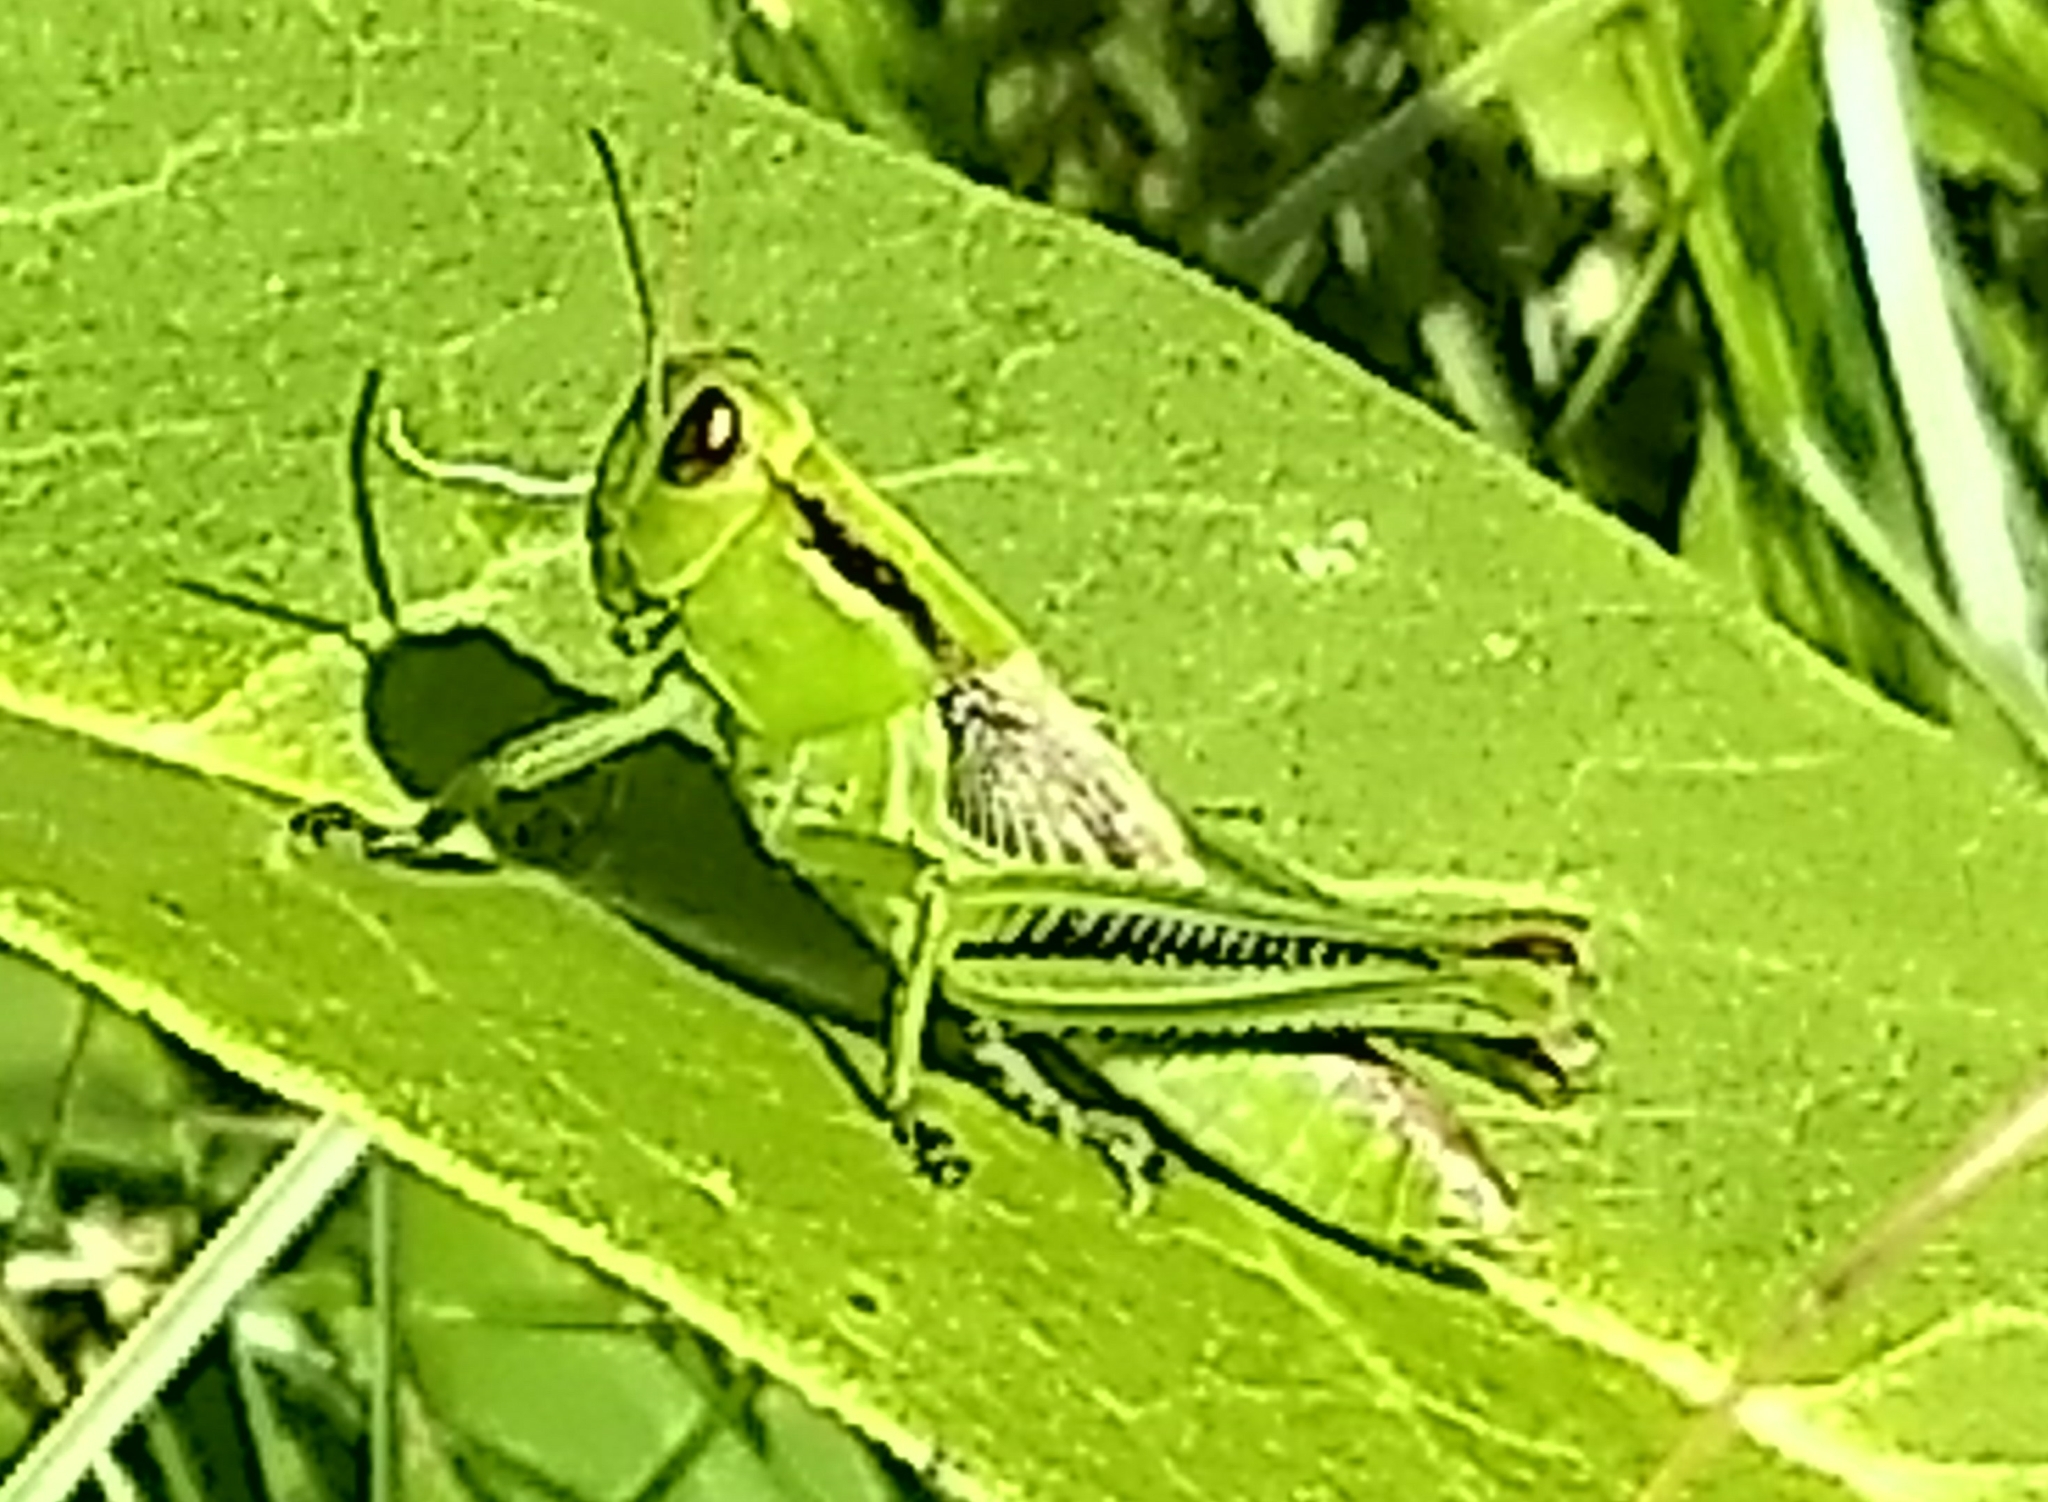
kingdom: Animalia
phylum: Arthropoda
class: Insecta
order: Orthoptera
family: Acrididae
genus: Melanoplus
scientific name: Melanoplus bivittatus
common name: Two-striped grasshopper
